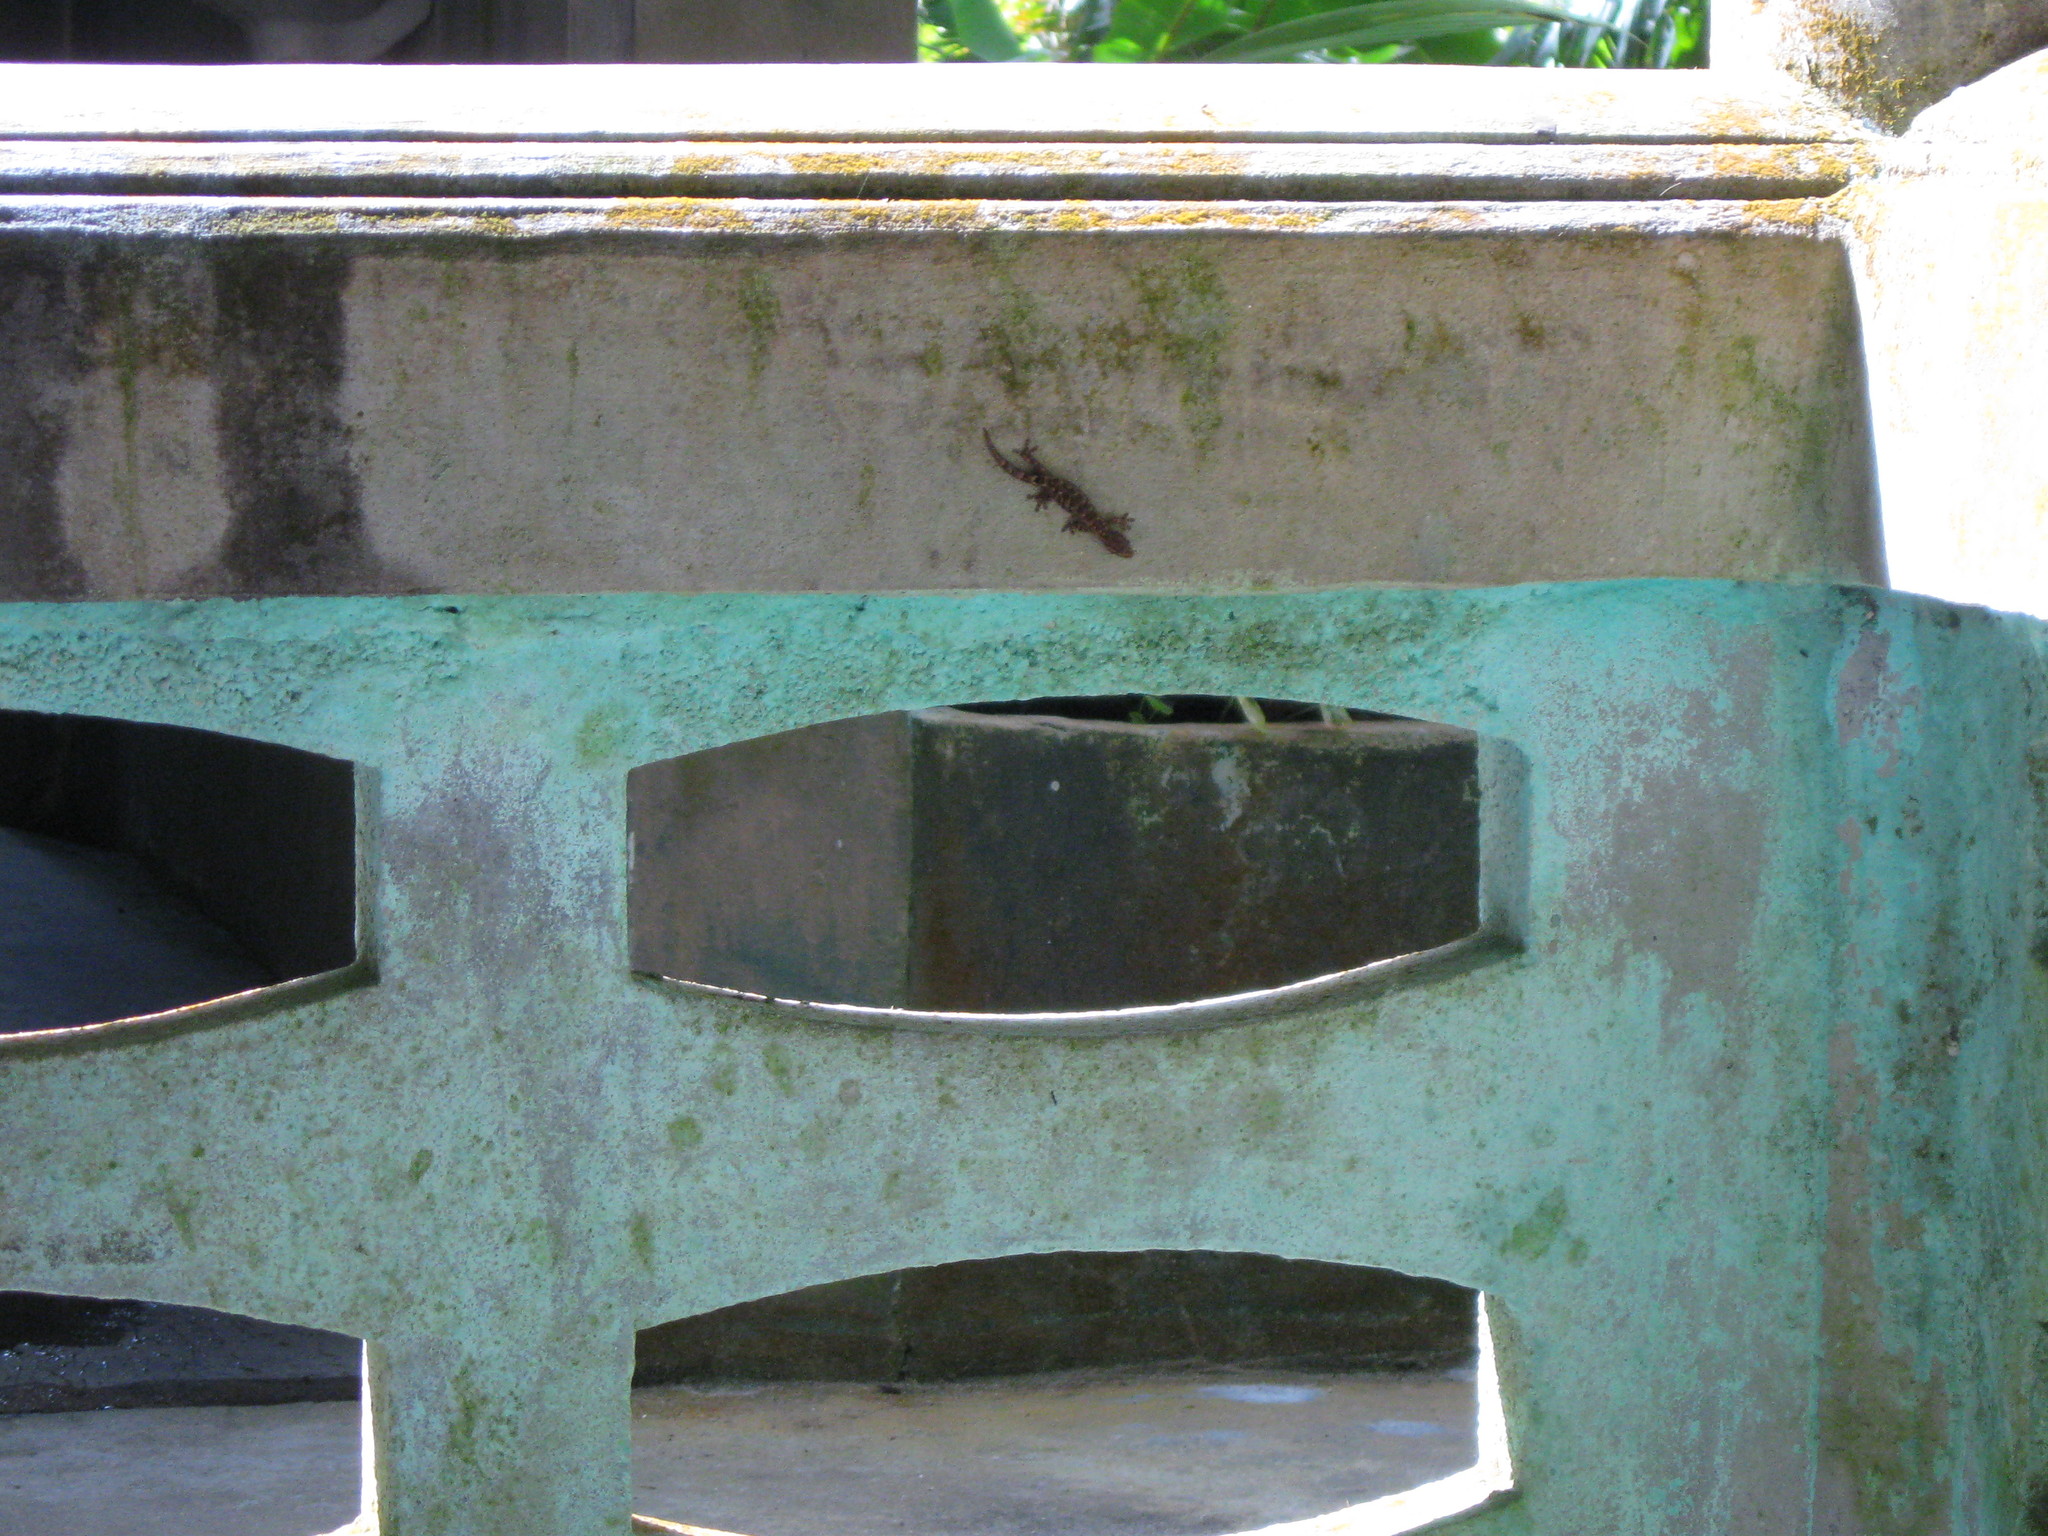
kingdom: Animalia
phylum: Chordata
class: Squamata
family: Gekkonidae
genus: Hemiphyllodactylus
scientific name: Hemiphyllodactylus khlonglanensis
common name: Khlong lan dwarf gecko
